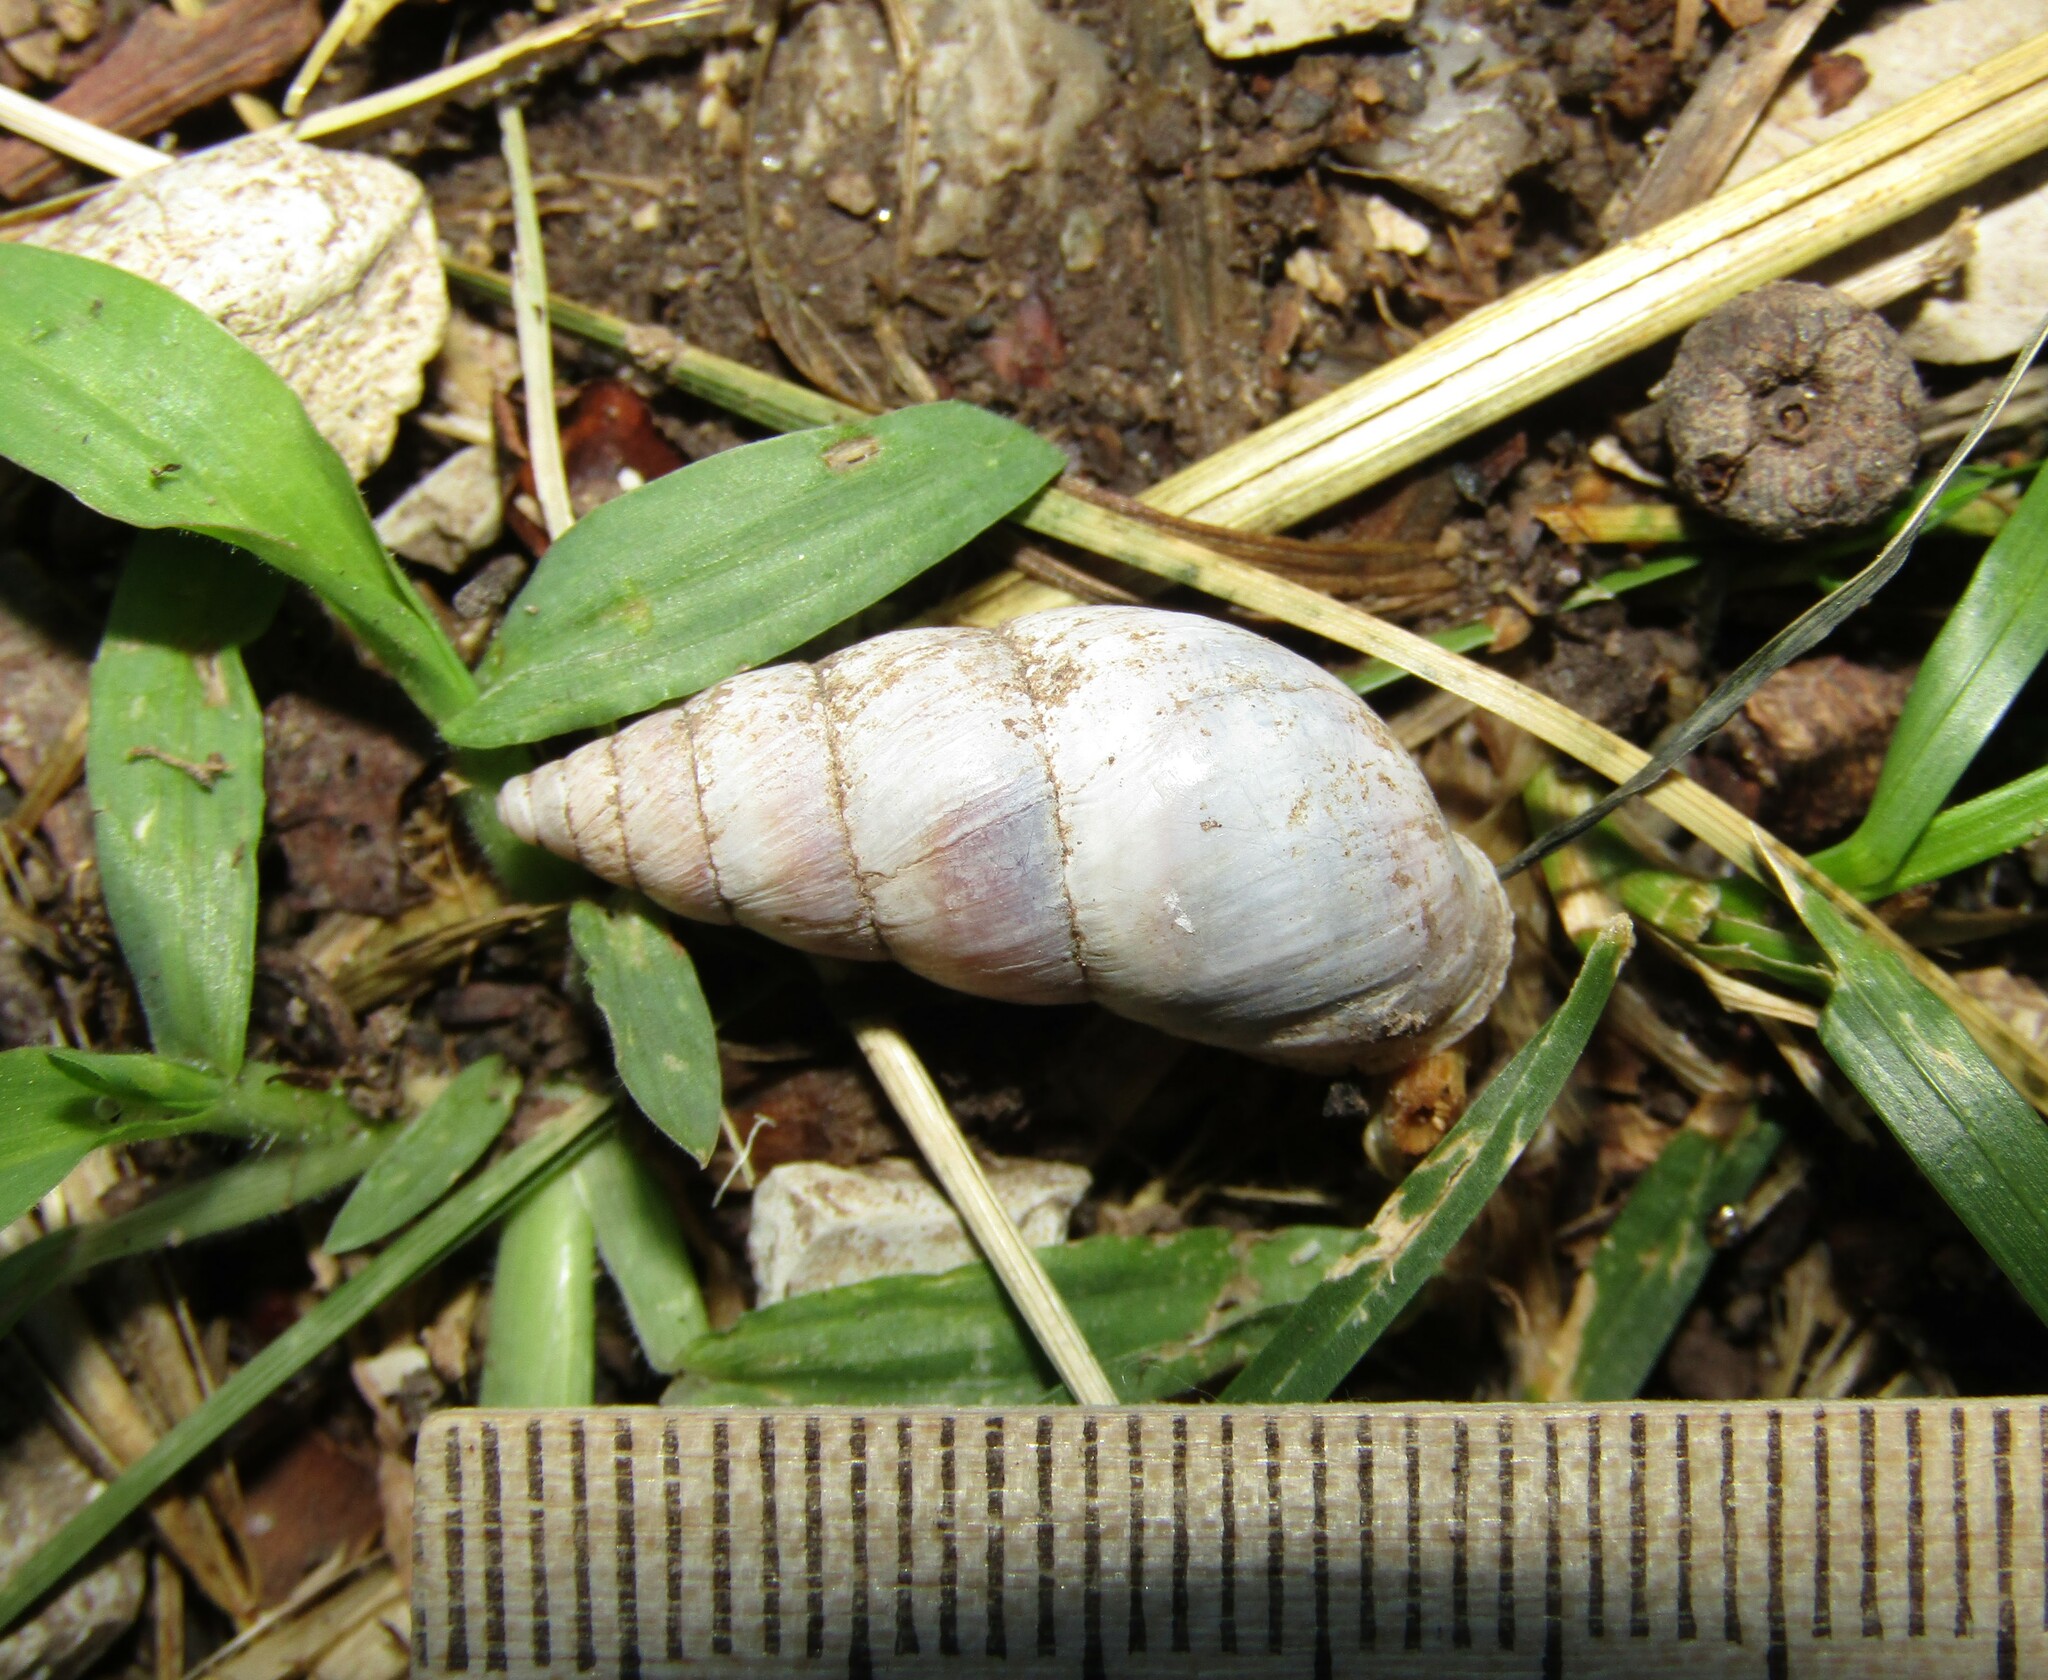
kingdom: Animalia
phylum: Mollusca
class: Gastropoda
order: Stylommatophora
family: Enidae
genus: Caucasicola
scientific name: Caucasicola raddei
